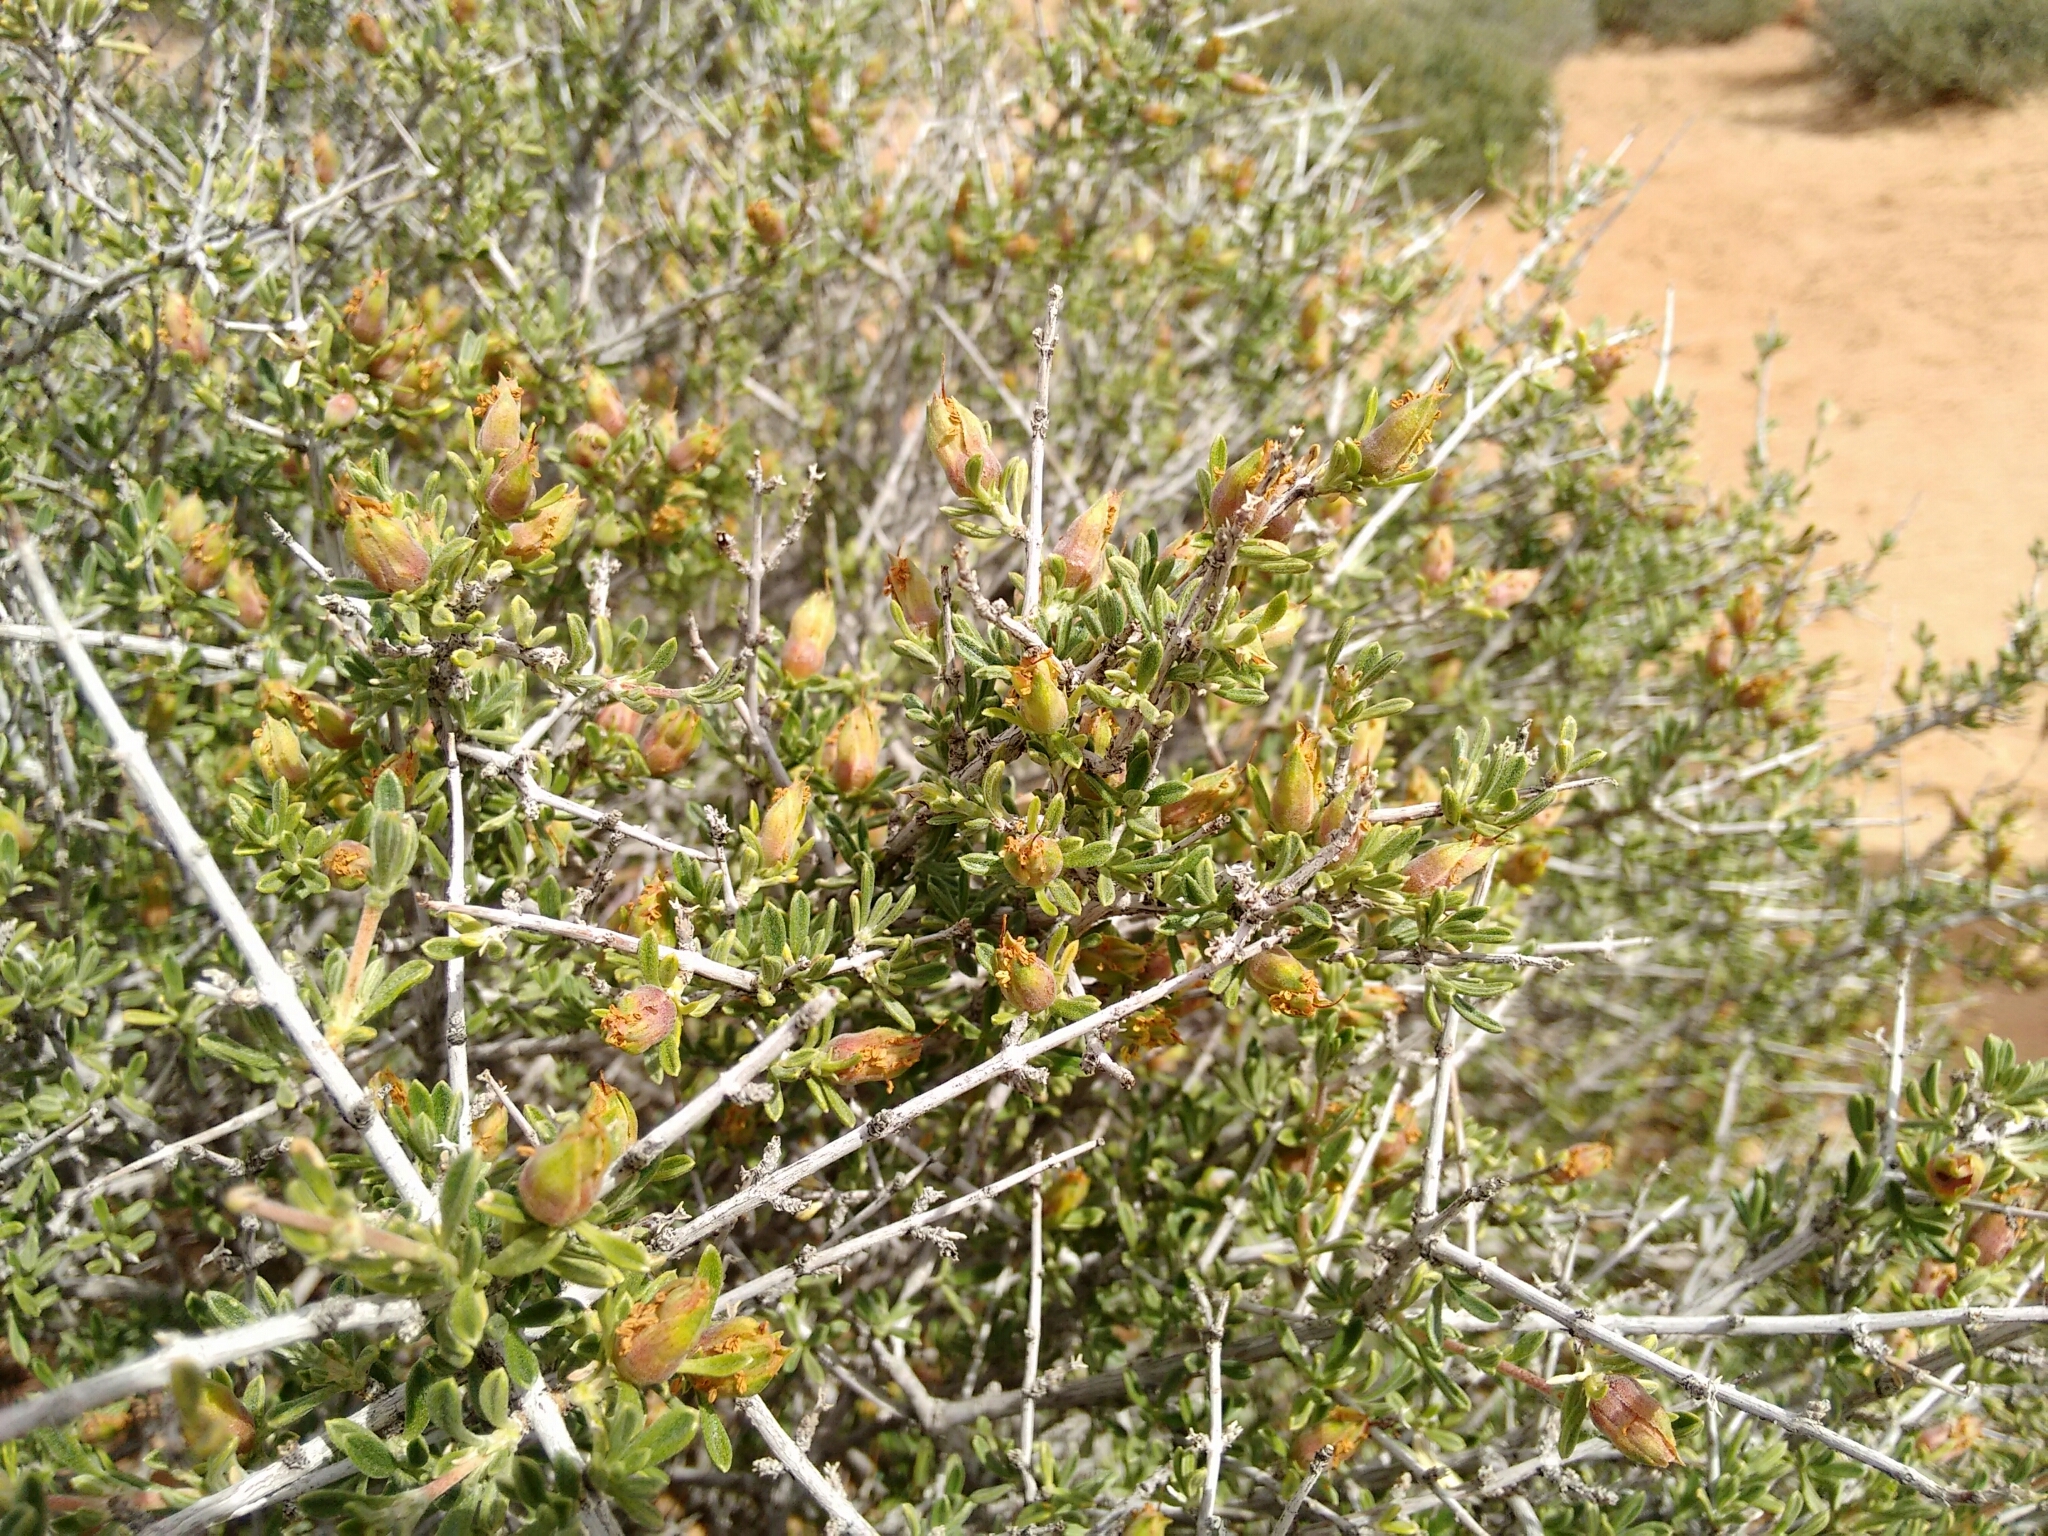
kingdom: Plantae
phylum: Tracheophyta
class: Magnoliopsida
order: Rosales
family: Rosaceae
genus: Coleogyne
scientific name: Coleogyne ramosissima
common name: Blackbrush
